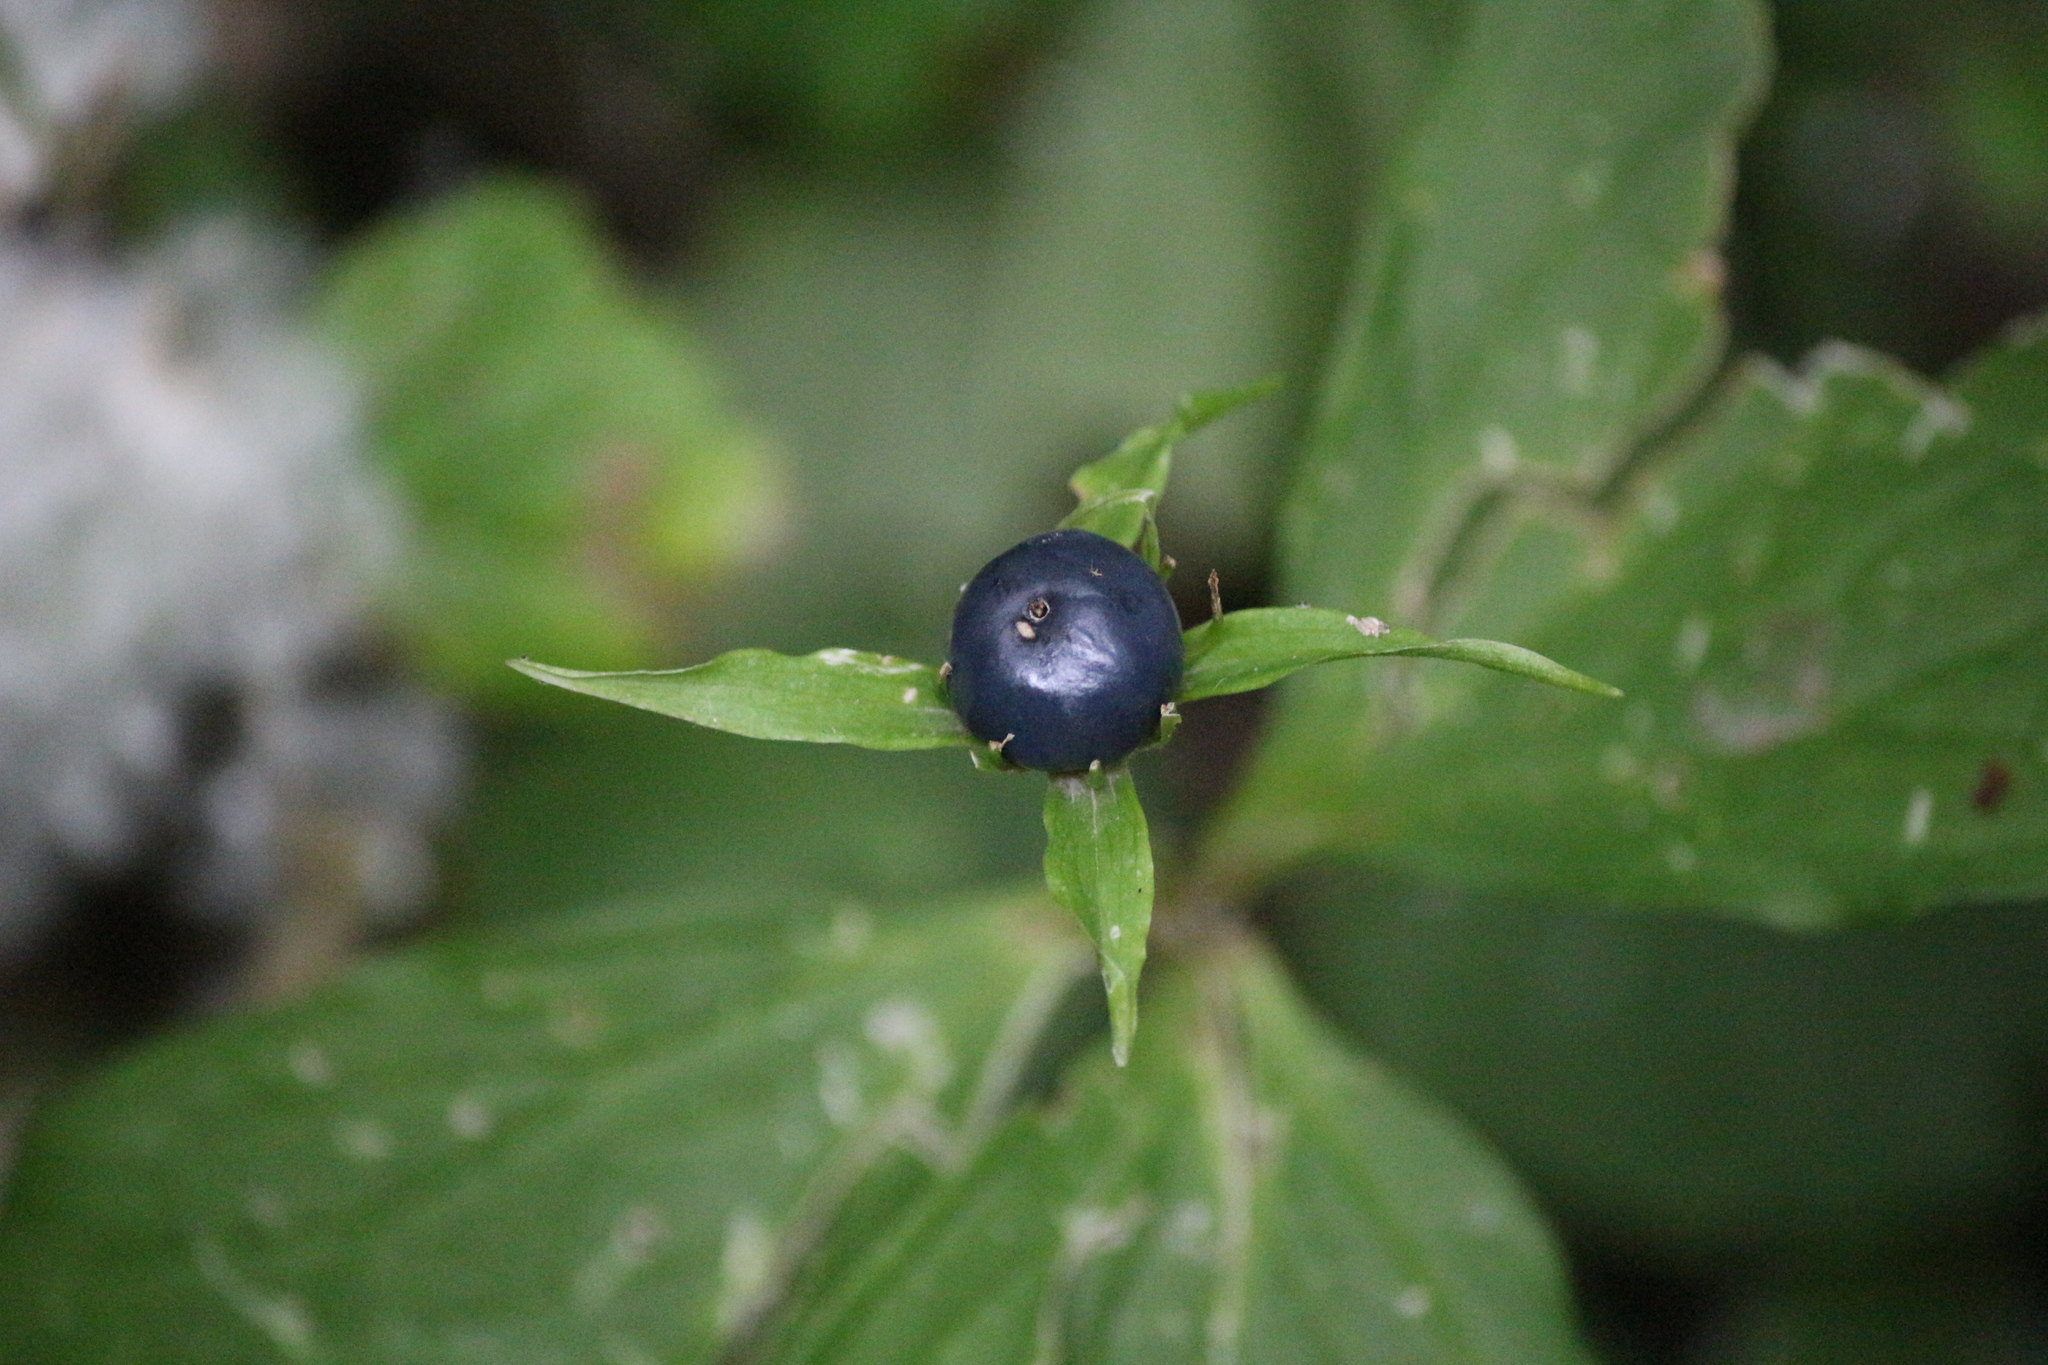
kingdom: Plantae
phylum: Tracheophyta
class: Liliopsida
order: Liliales
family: Melanthiaceae
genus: Paris
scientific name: Paris quadrifolia
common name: Herb-paris
